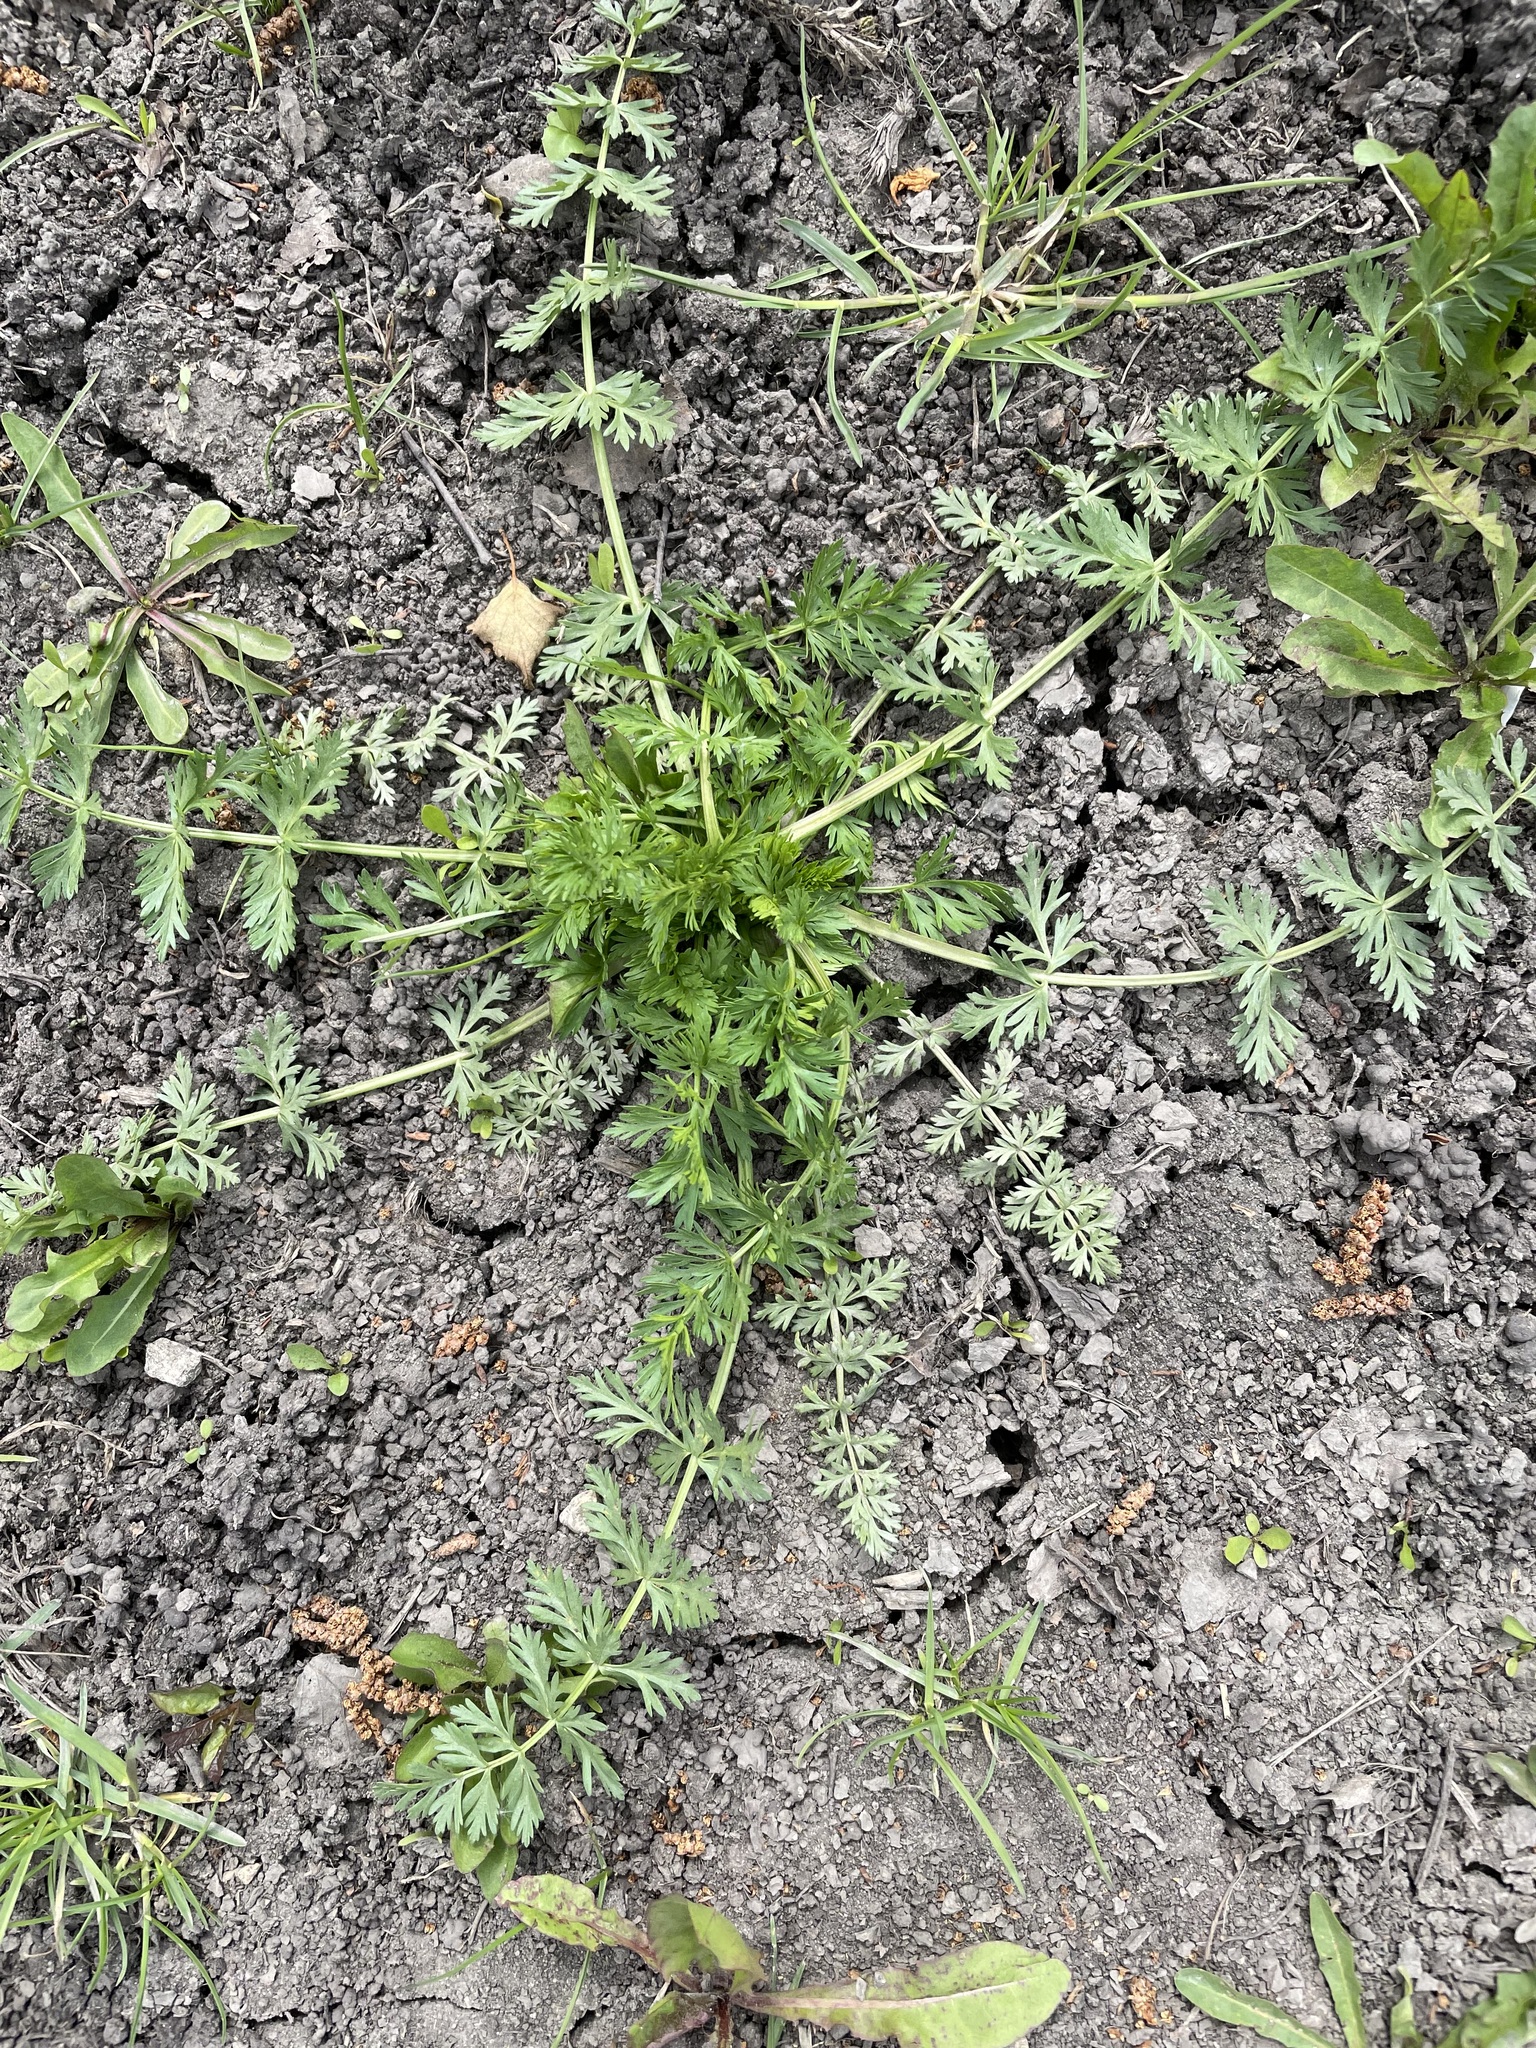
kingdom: Plantae
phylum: Tracheophyta
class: Magnoliopsida
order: Apiales
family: Apiaceae
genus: Carum
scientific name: Carum carvi
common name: Caraway
